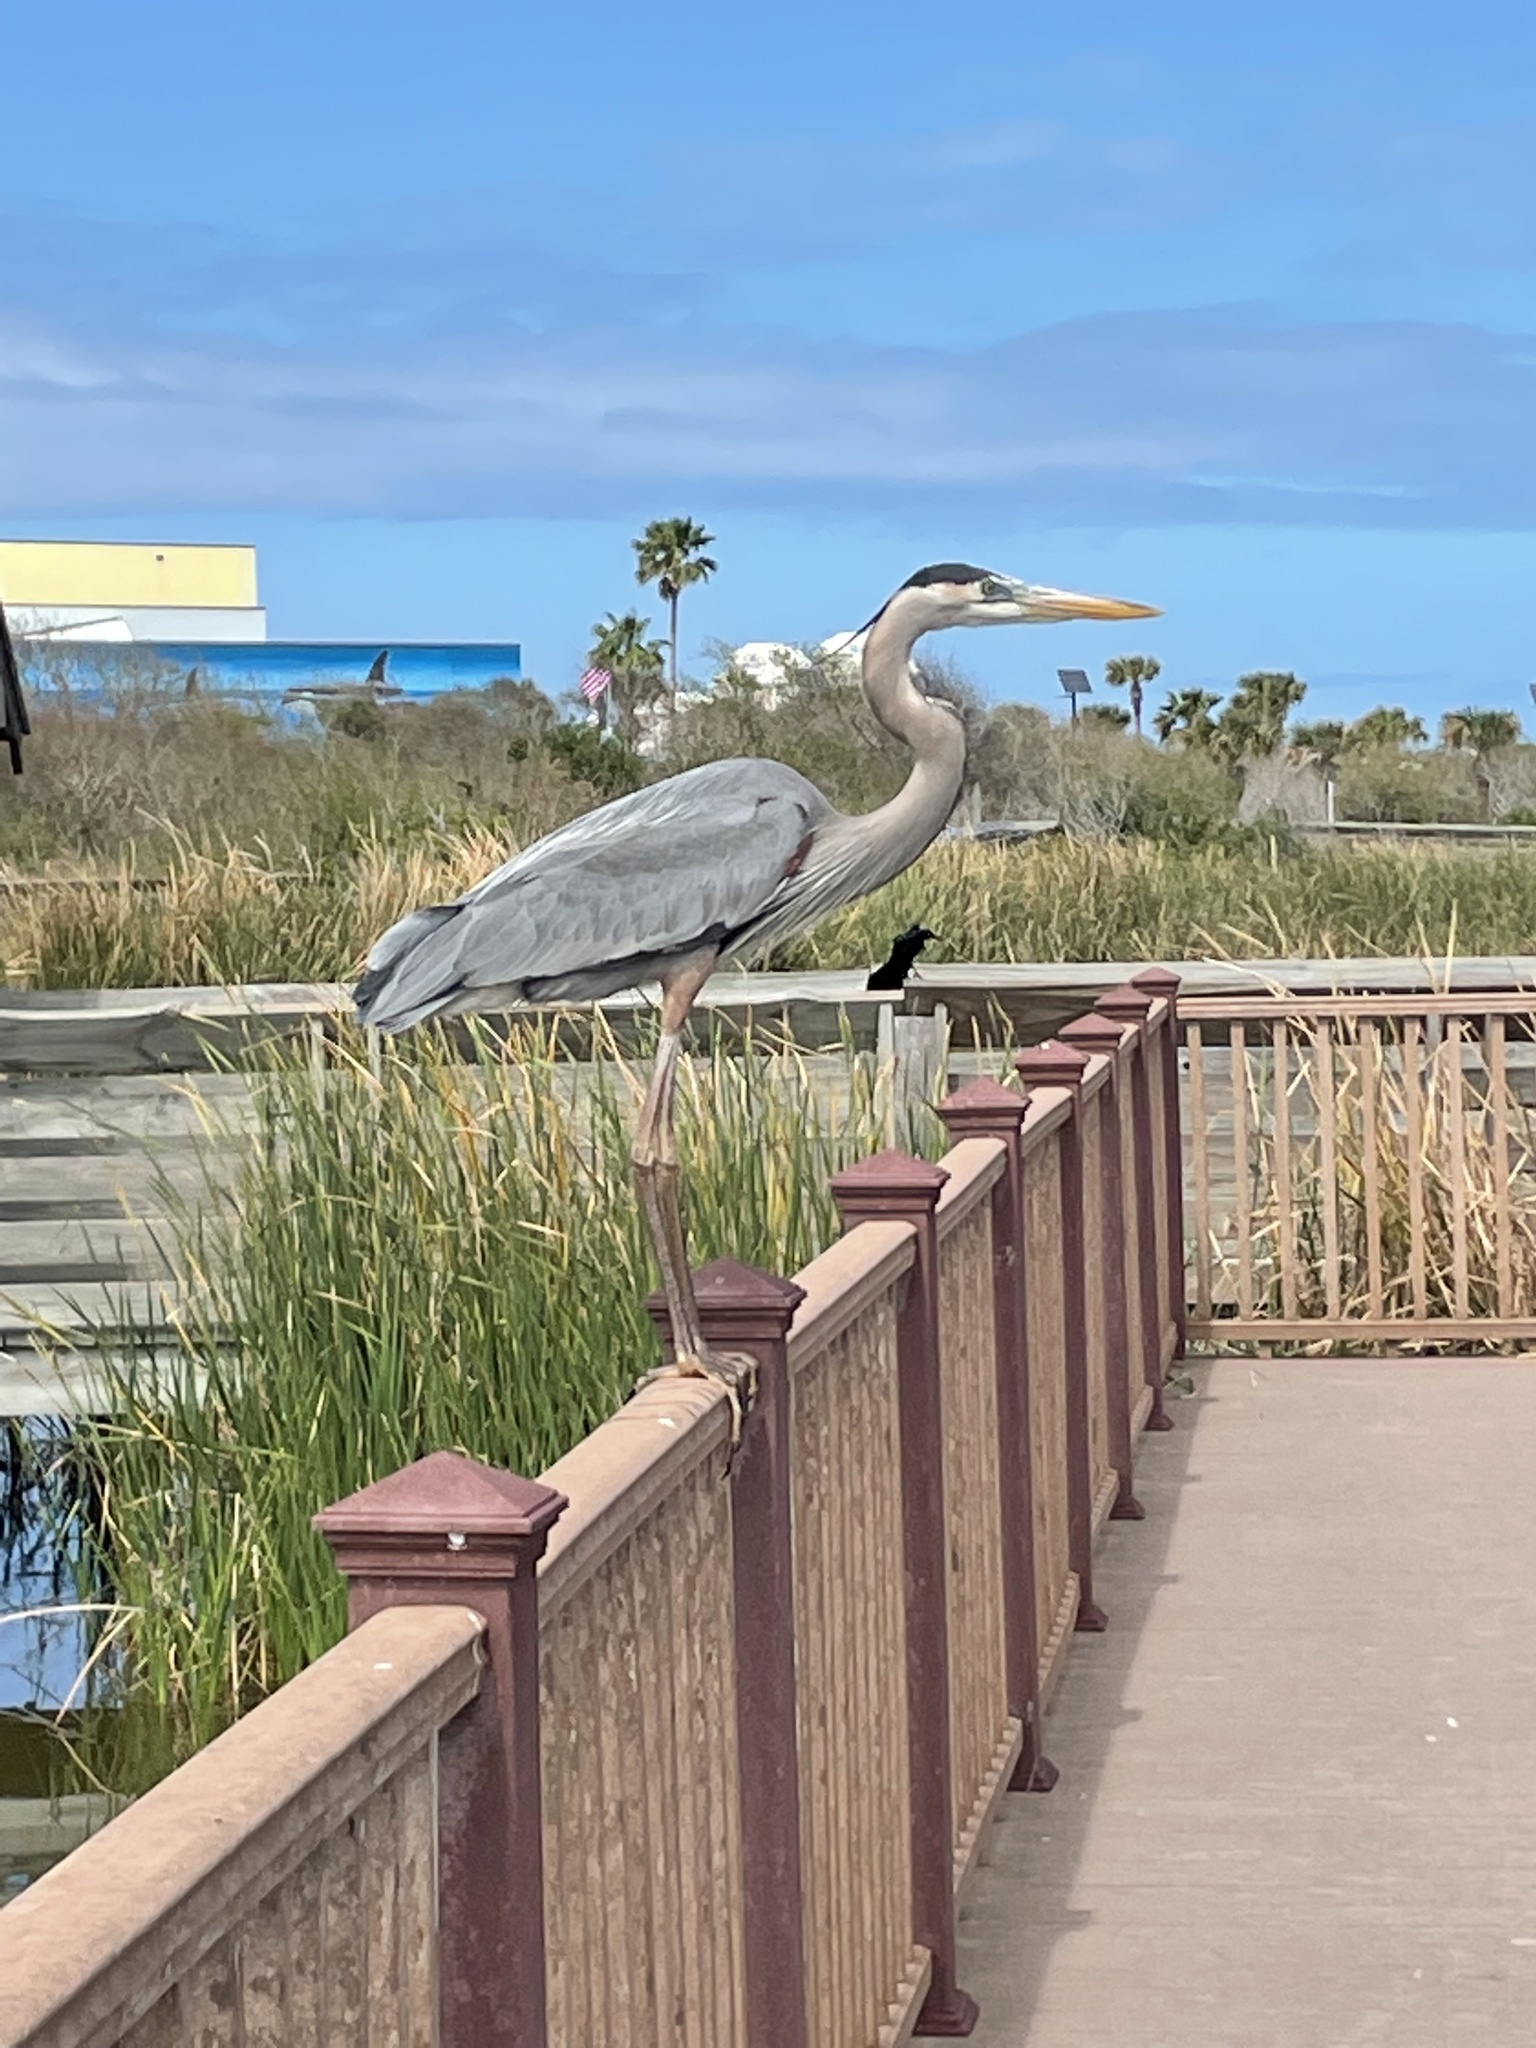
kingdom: Animalia
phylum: Chordata
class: Aves
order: Pelecaniformes
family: Ardeidae
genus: Ardea
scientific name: Ardea herodias
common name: Great blue heron
